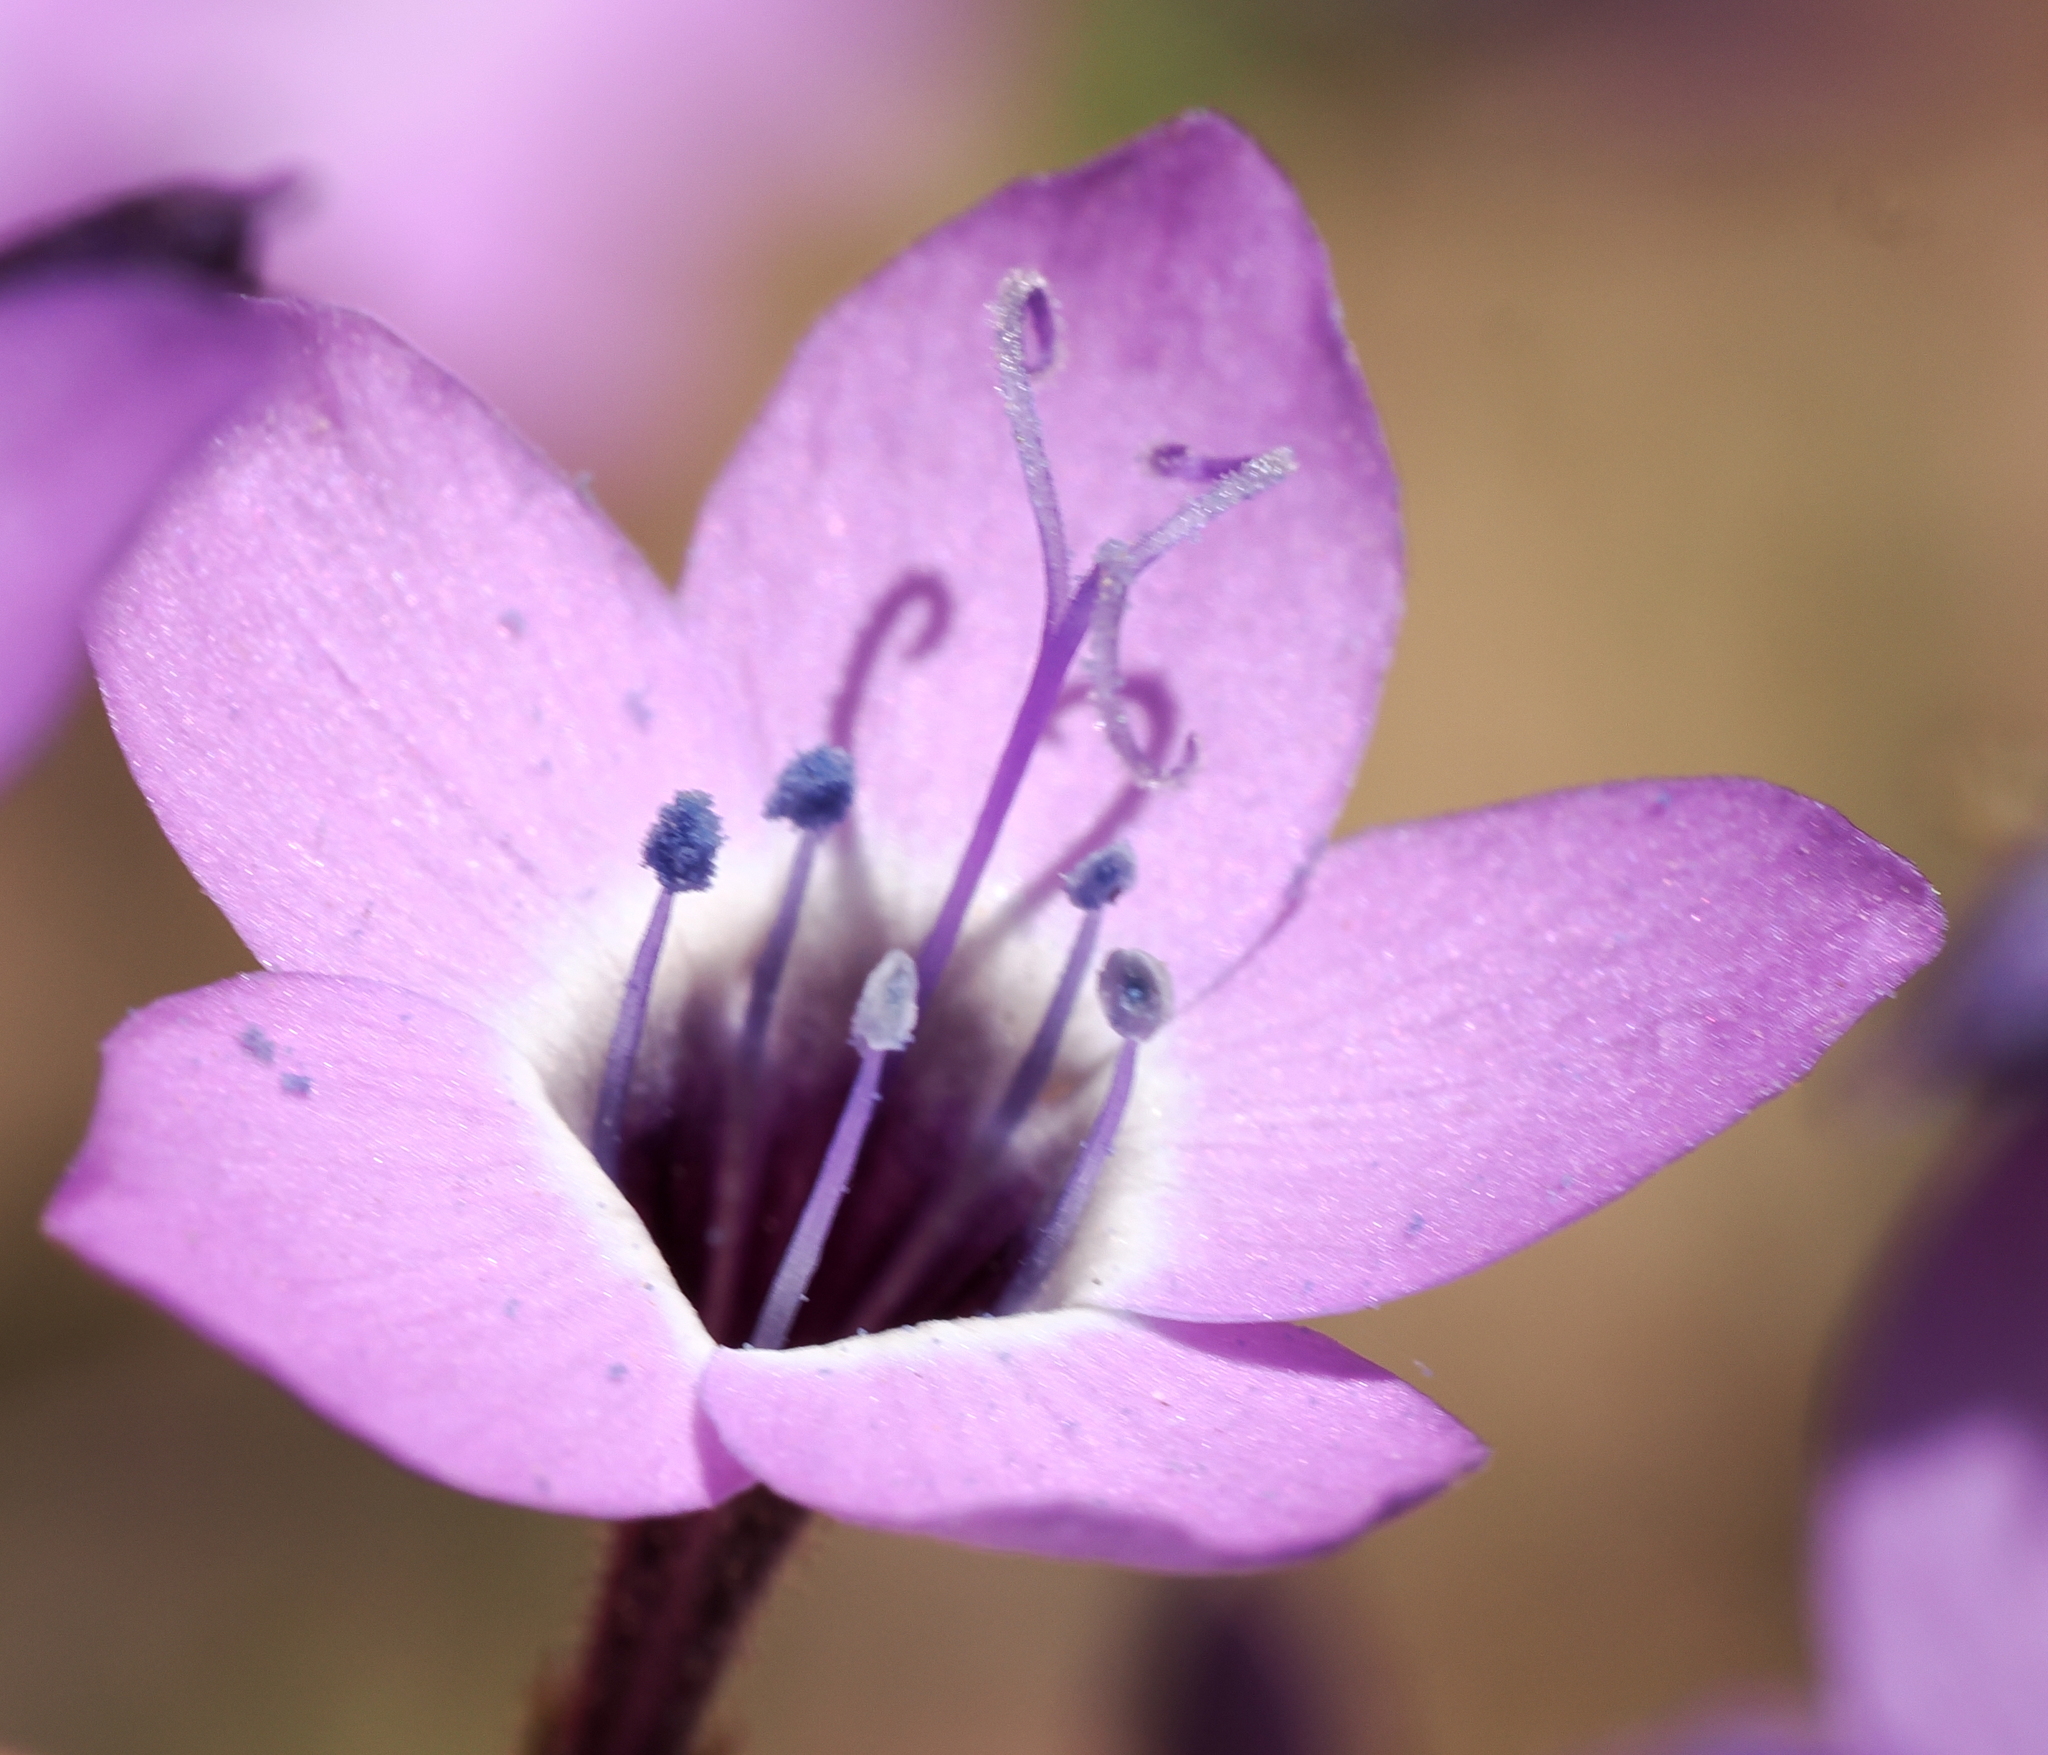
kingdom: Plantae
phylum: Tracheophyta
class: Magnoliopsida
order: Ericales
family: Polemoniaceae
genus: Gilia
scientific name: Gilia tenuiflora
